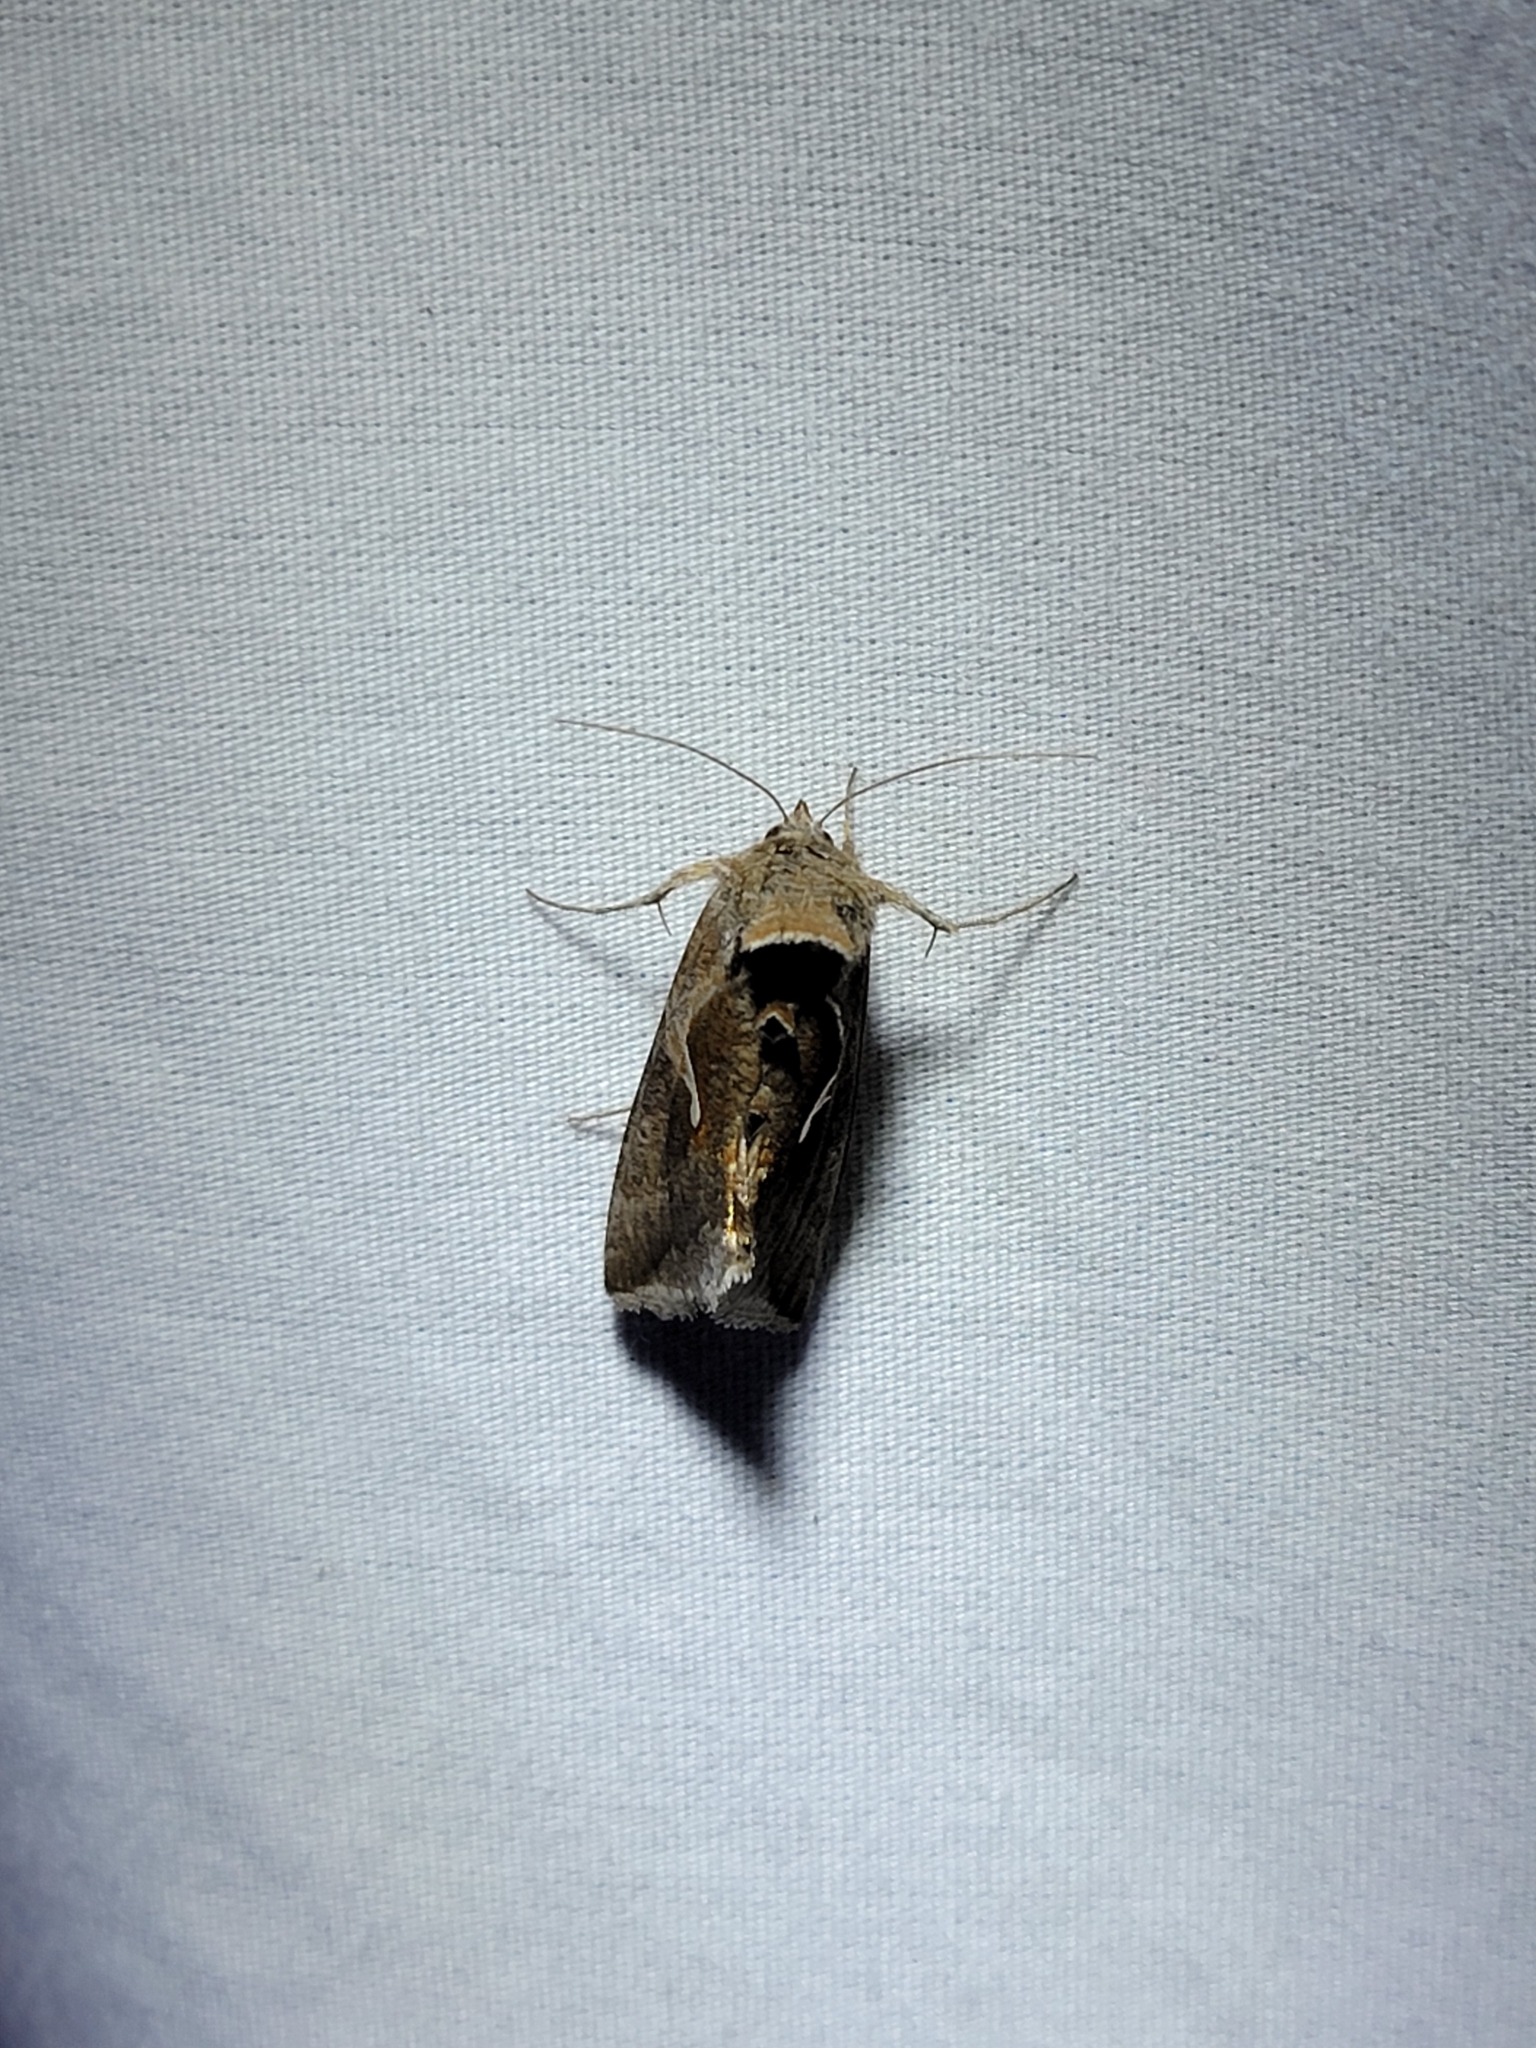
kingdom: Animalia
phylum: Arthropoda
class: Insecta
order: Lepidoptera
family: Noctuidae
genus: Anagrapha
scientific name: Anagrapha falcifera
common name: Celery looper
